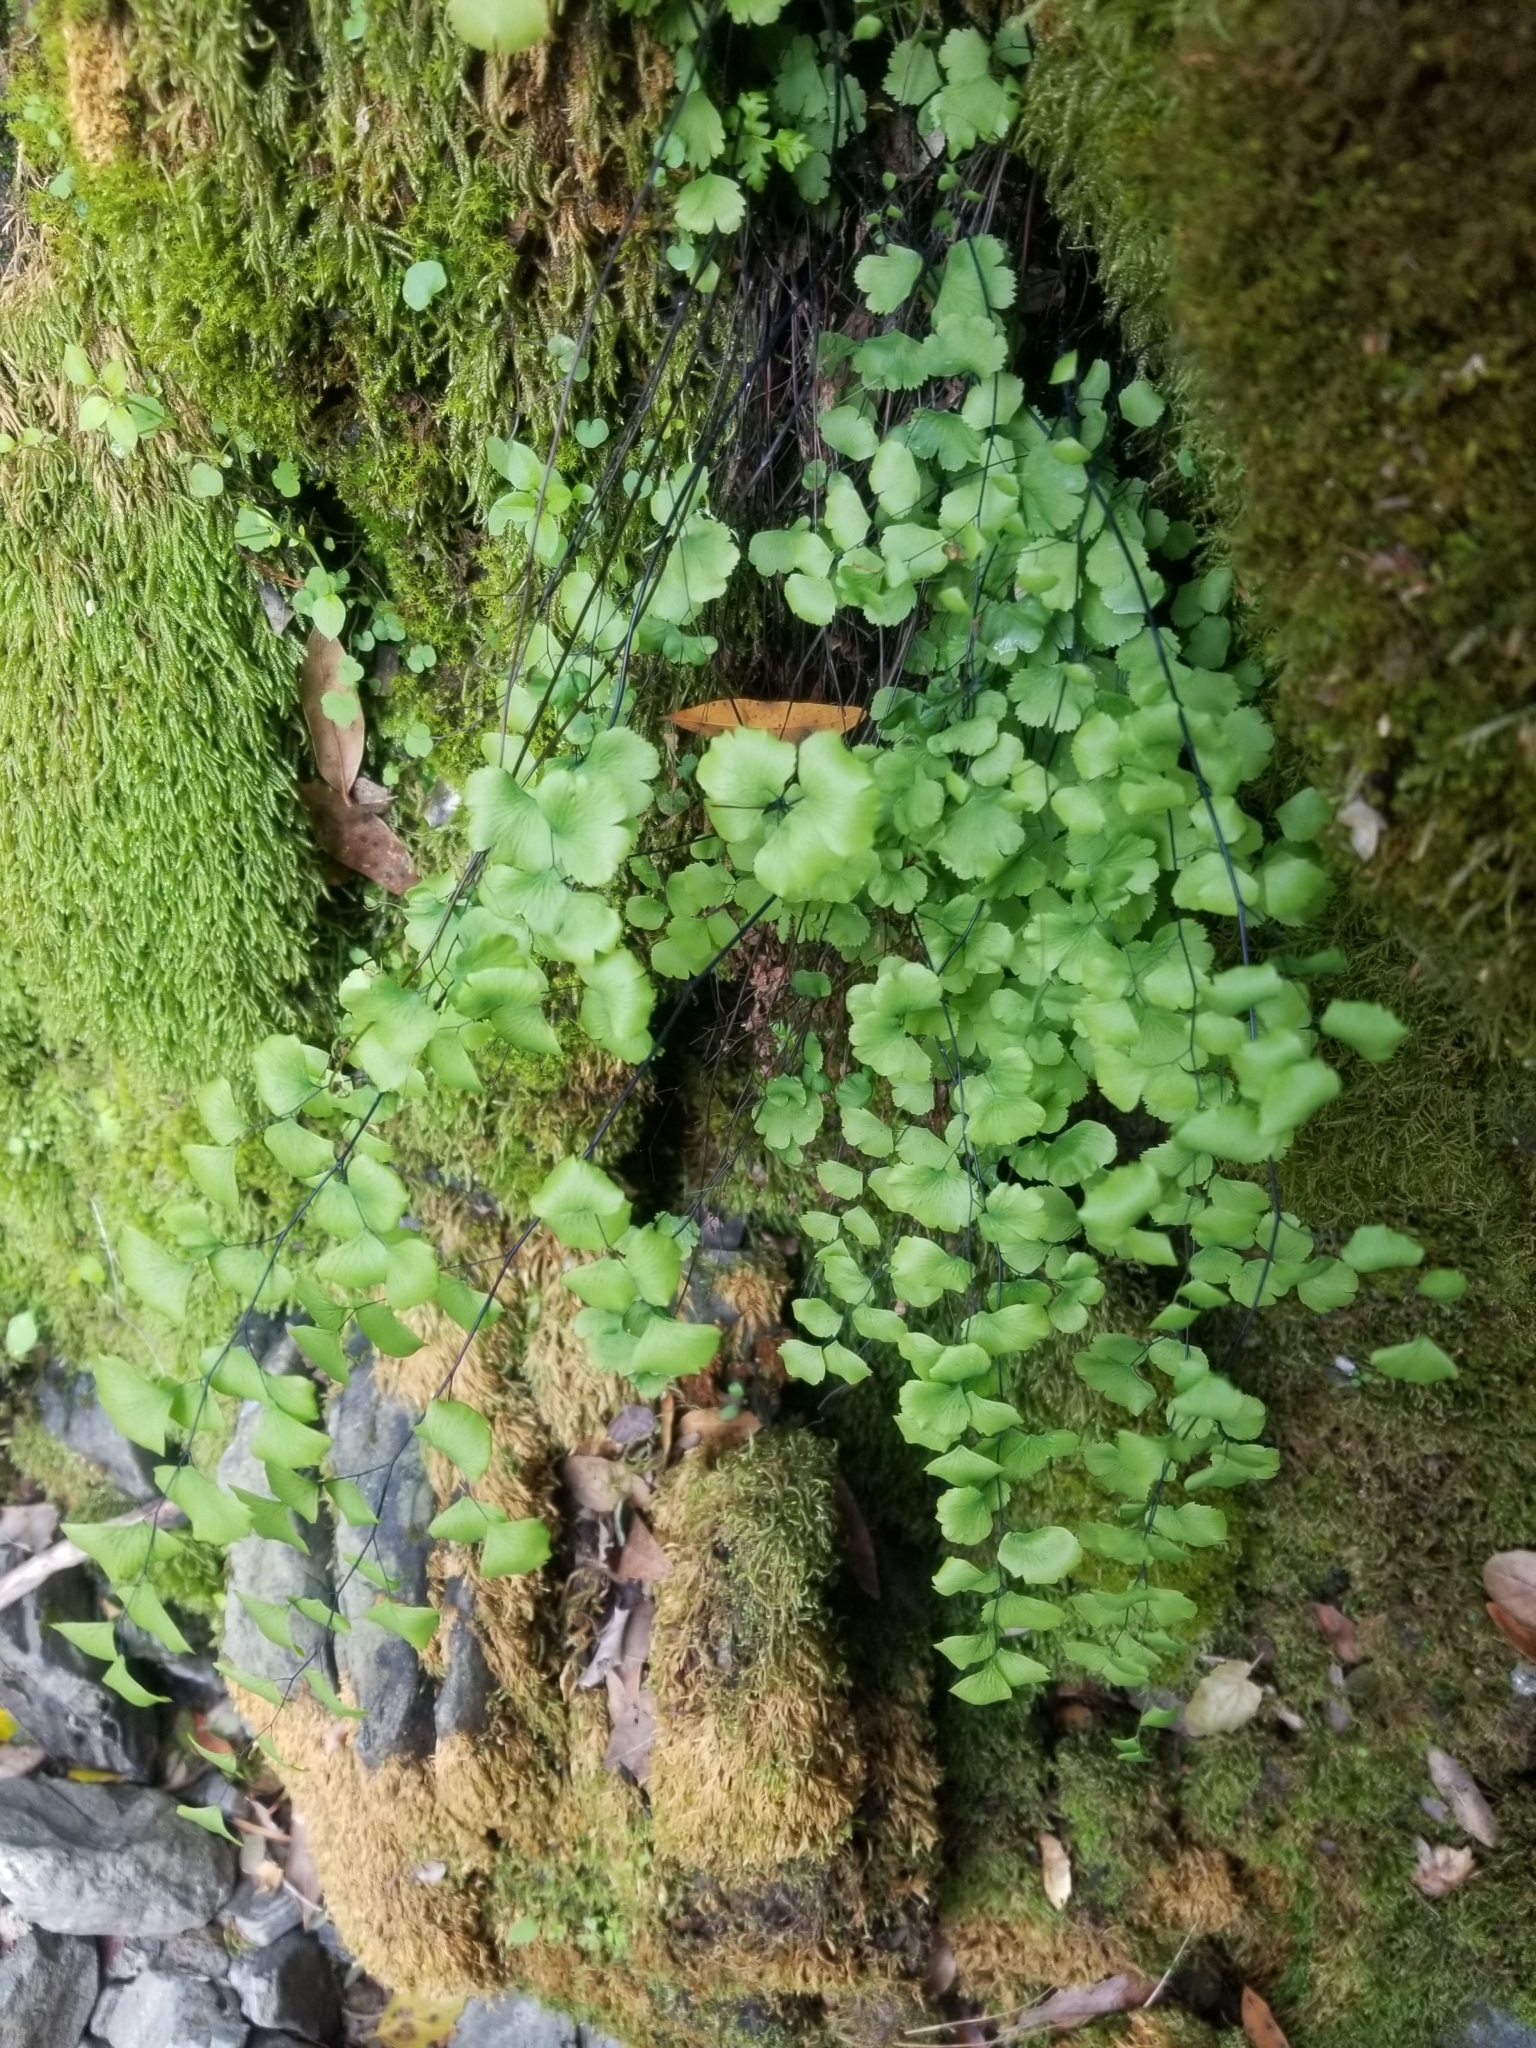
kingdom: Plantae
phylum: Tracheophyta
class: Polypodiopsida
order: Polypodiales
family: Pteridaceae
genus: Adiantum
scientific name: Adiantum jordanii
